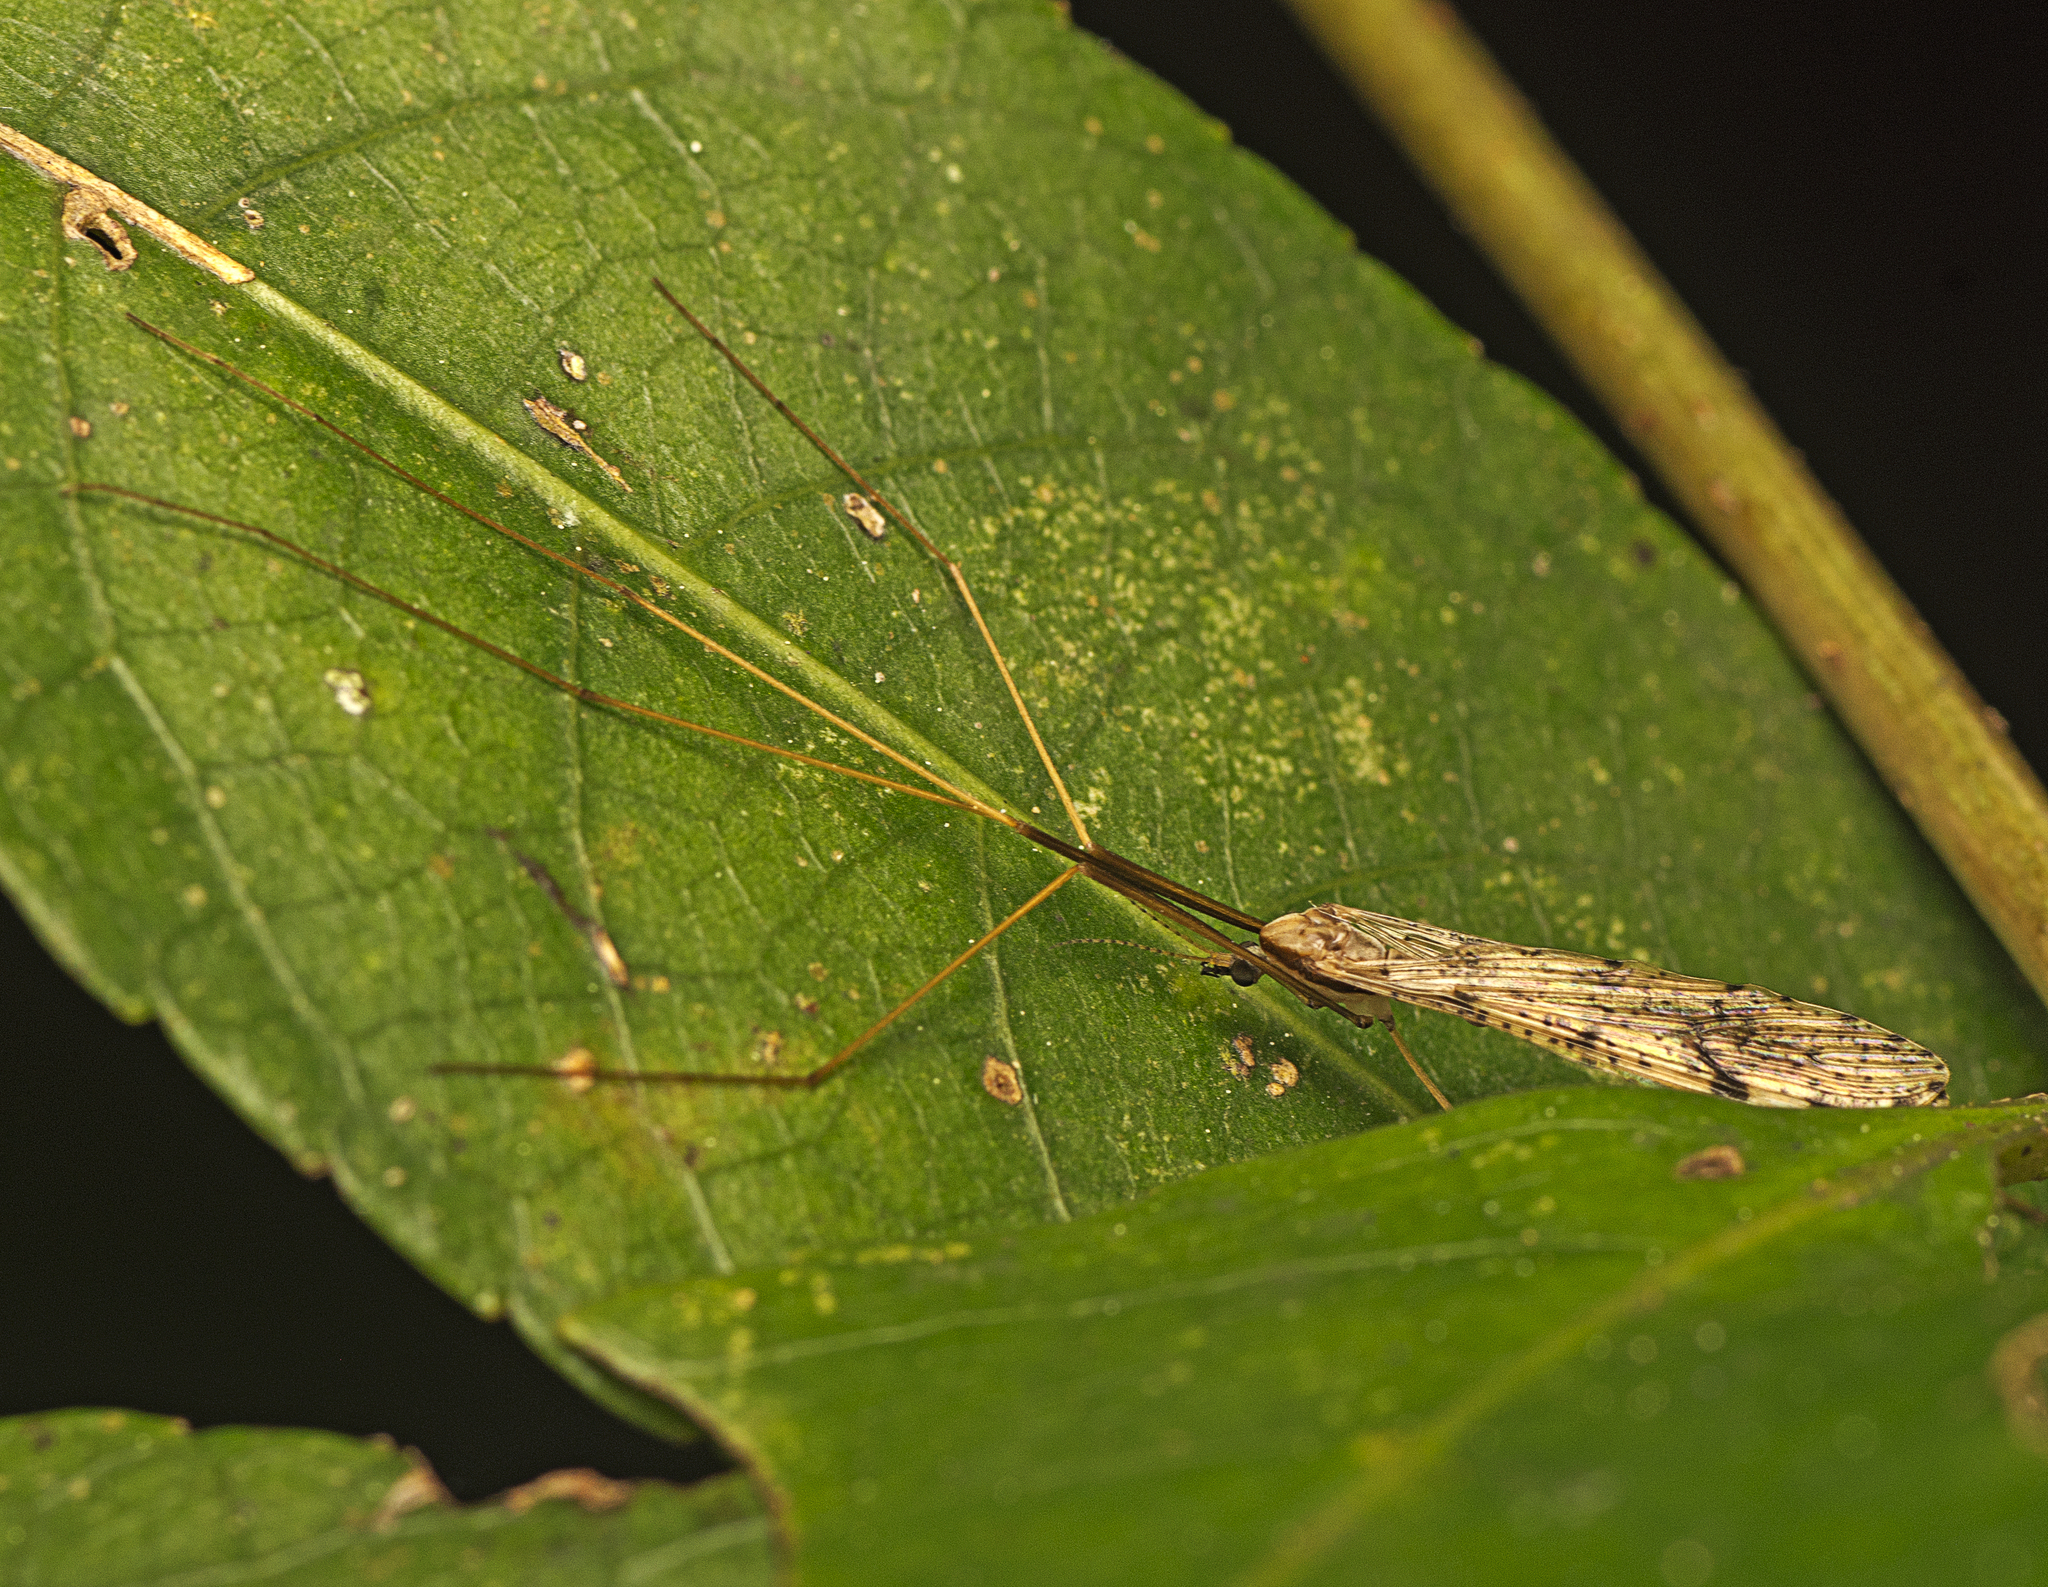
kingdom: Animalia
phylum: Arthropoda
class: Insecta
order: Diptera
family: Limoniidae
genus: Austrolimnophila
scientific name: Austrolimnophila antiqua
